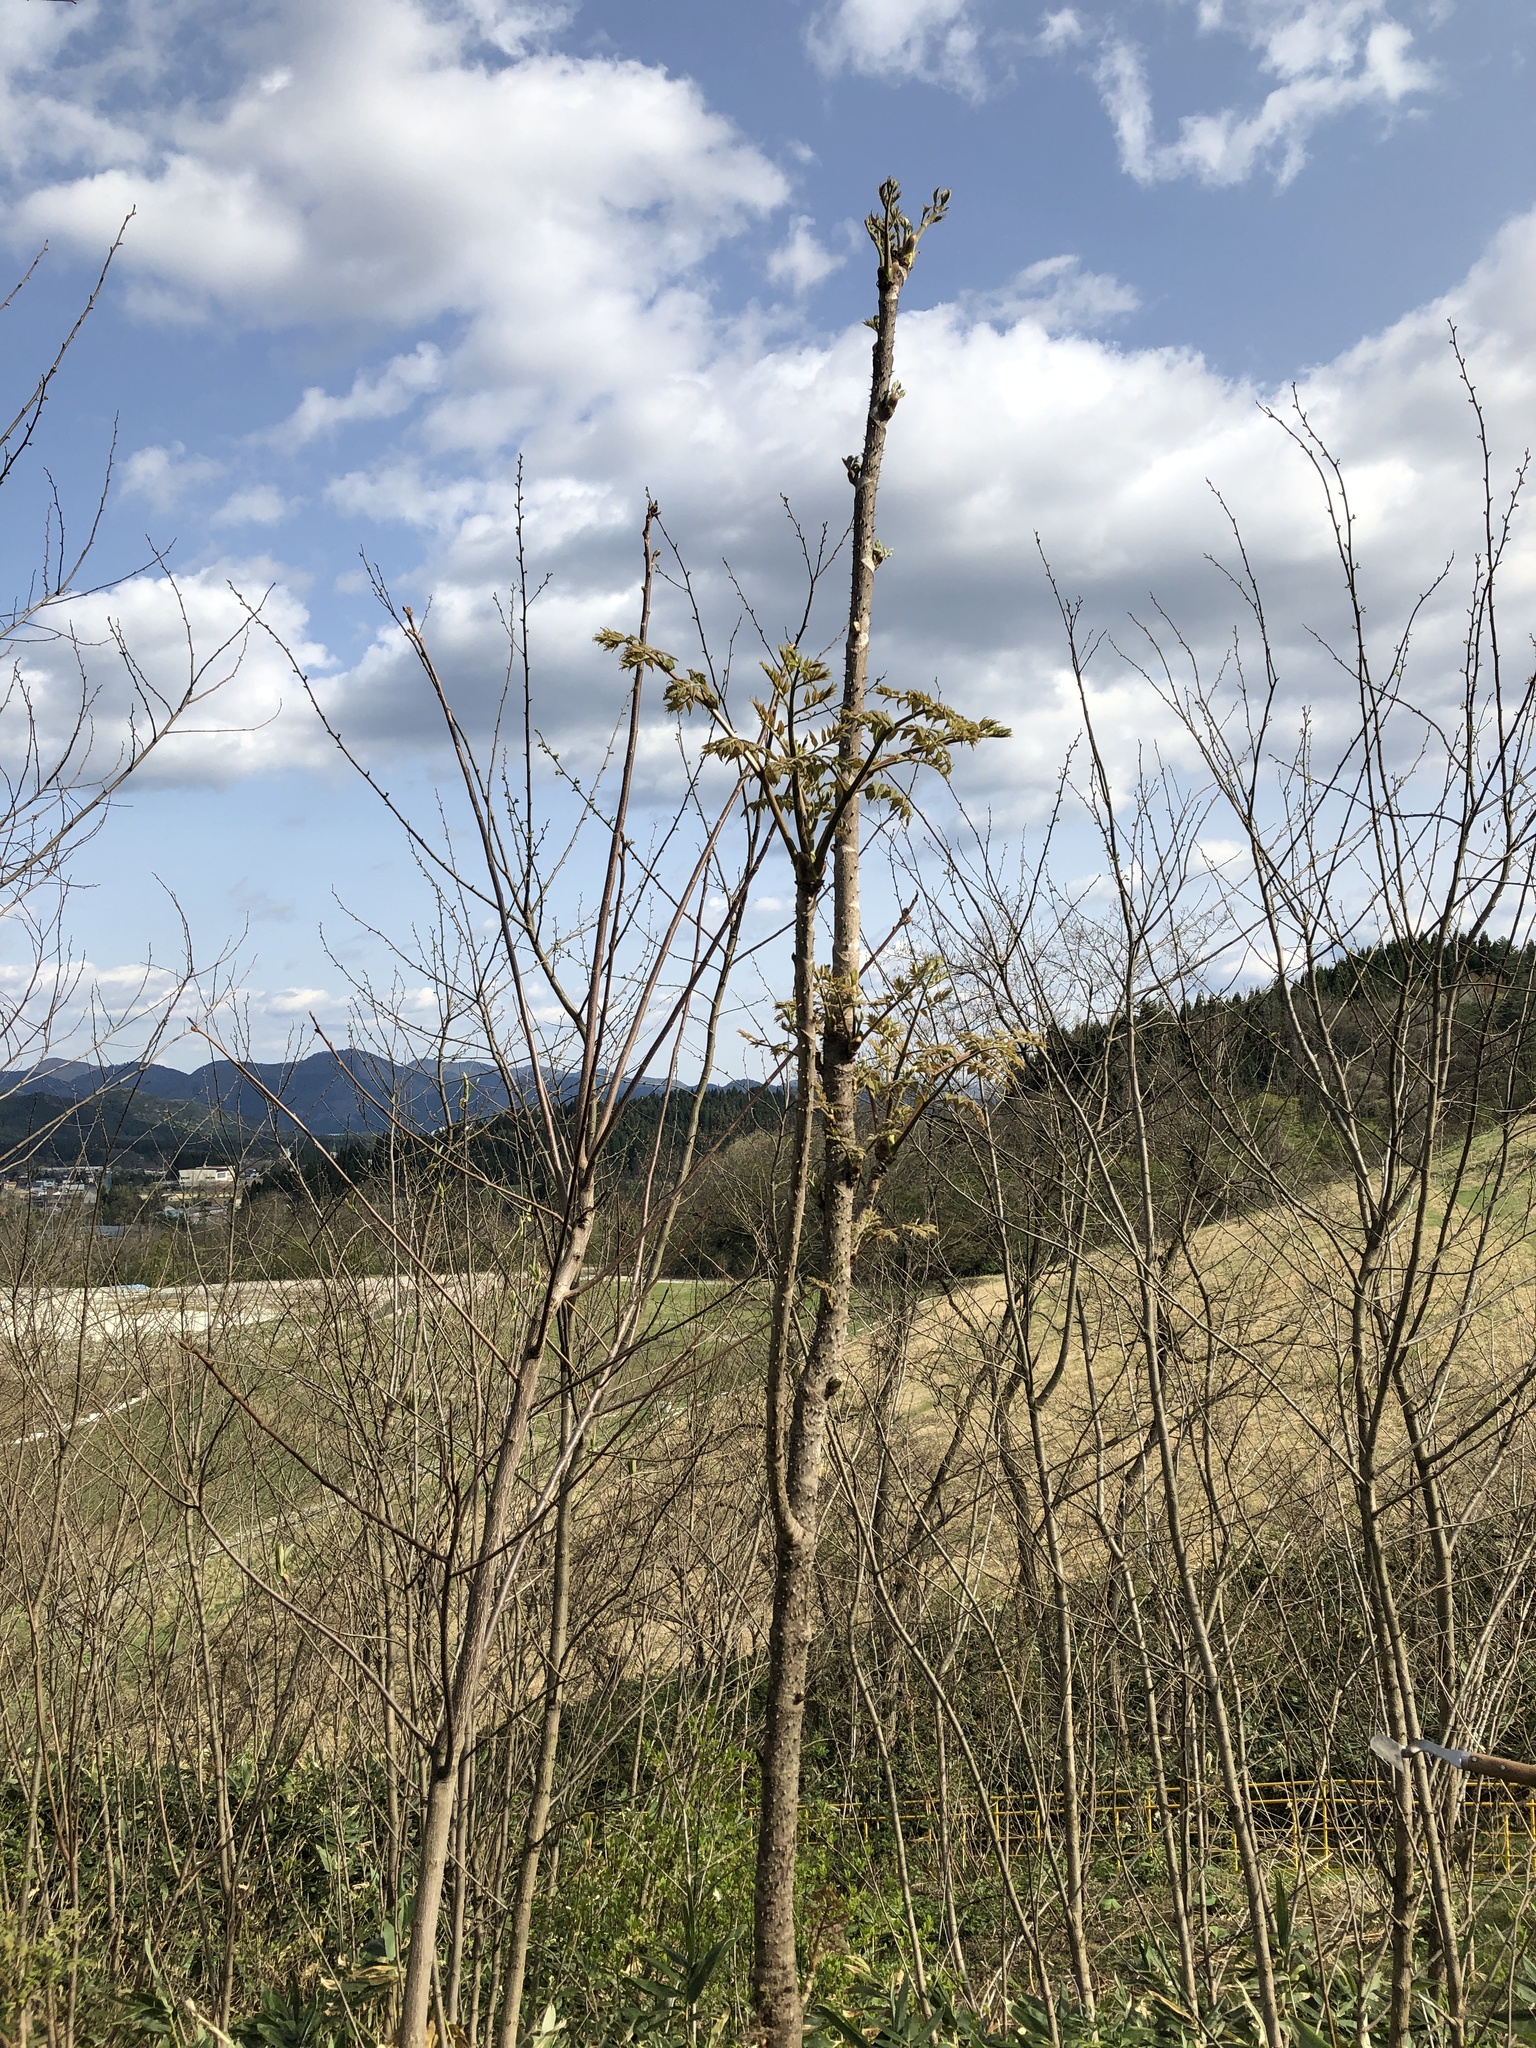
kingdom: Plantae
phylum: Tracheophyta
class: Magnoliopsida
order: Apiales
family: Araliaceae
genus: Aralia
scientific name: Aralia elata
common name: Japanese angelica-tree
